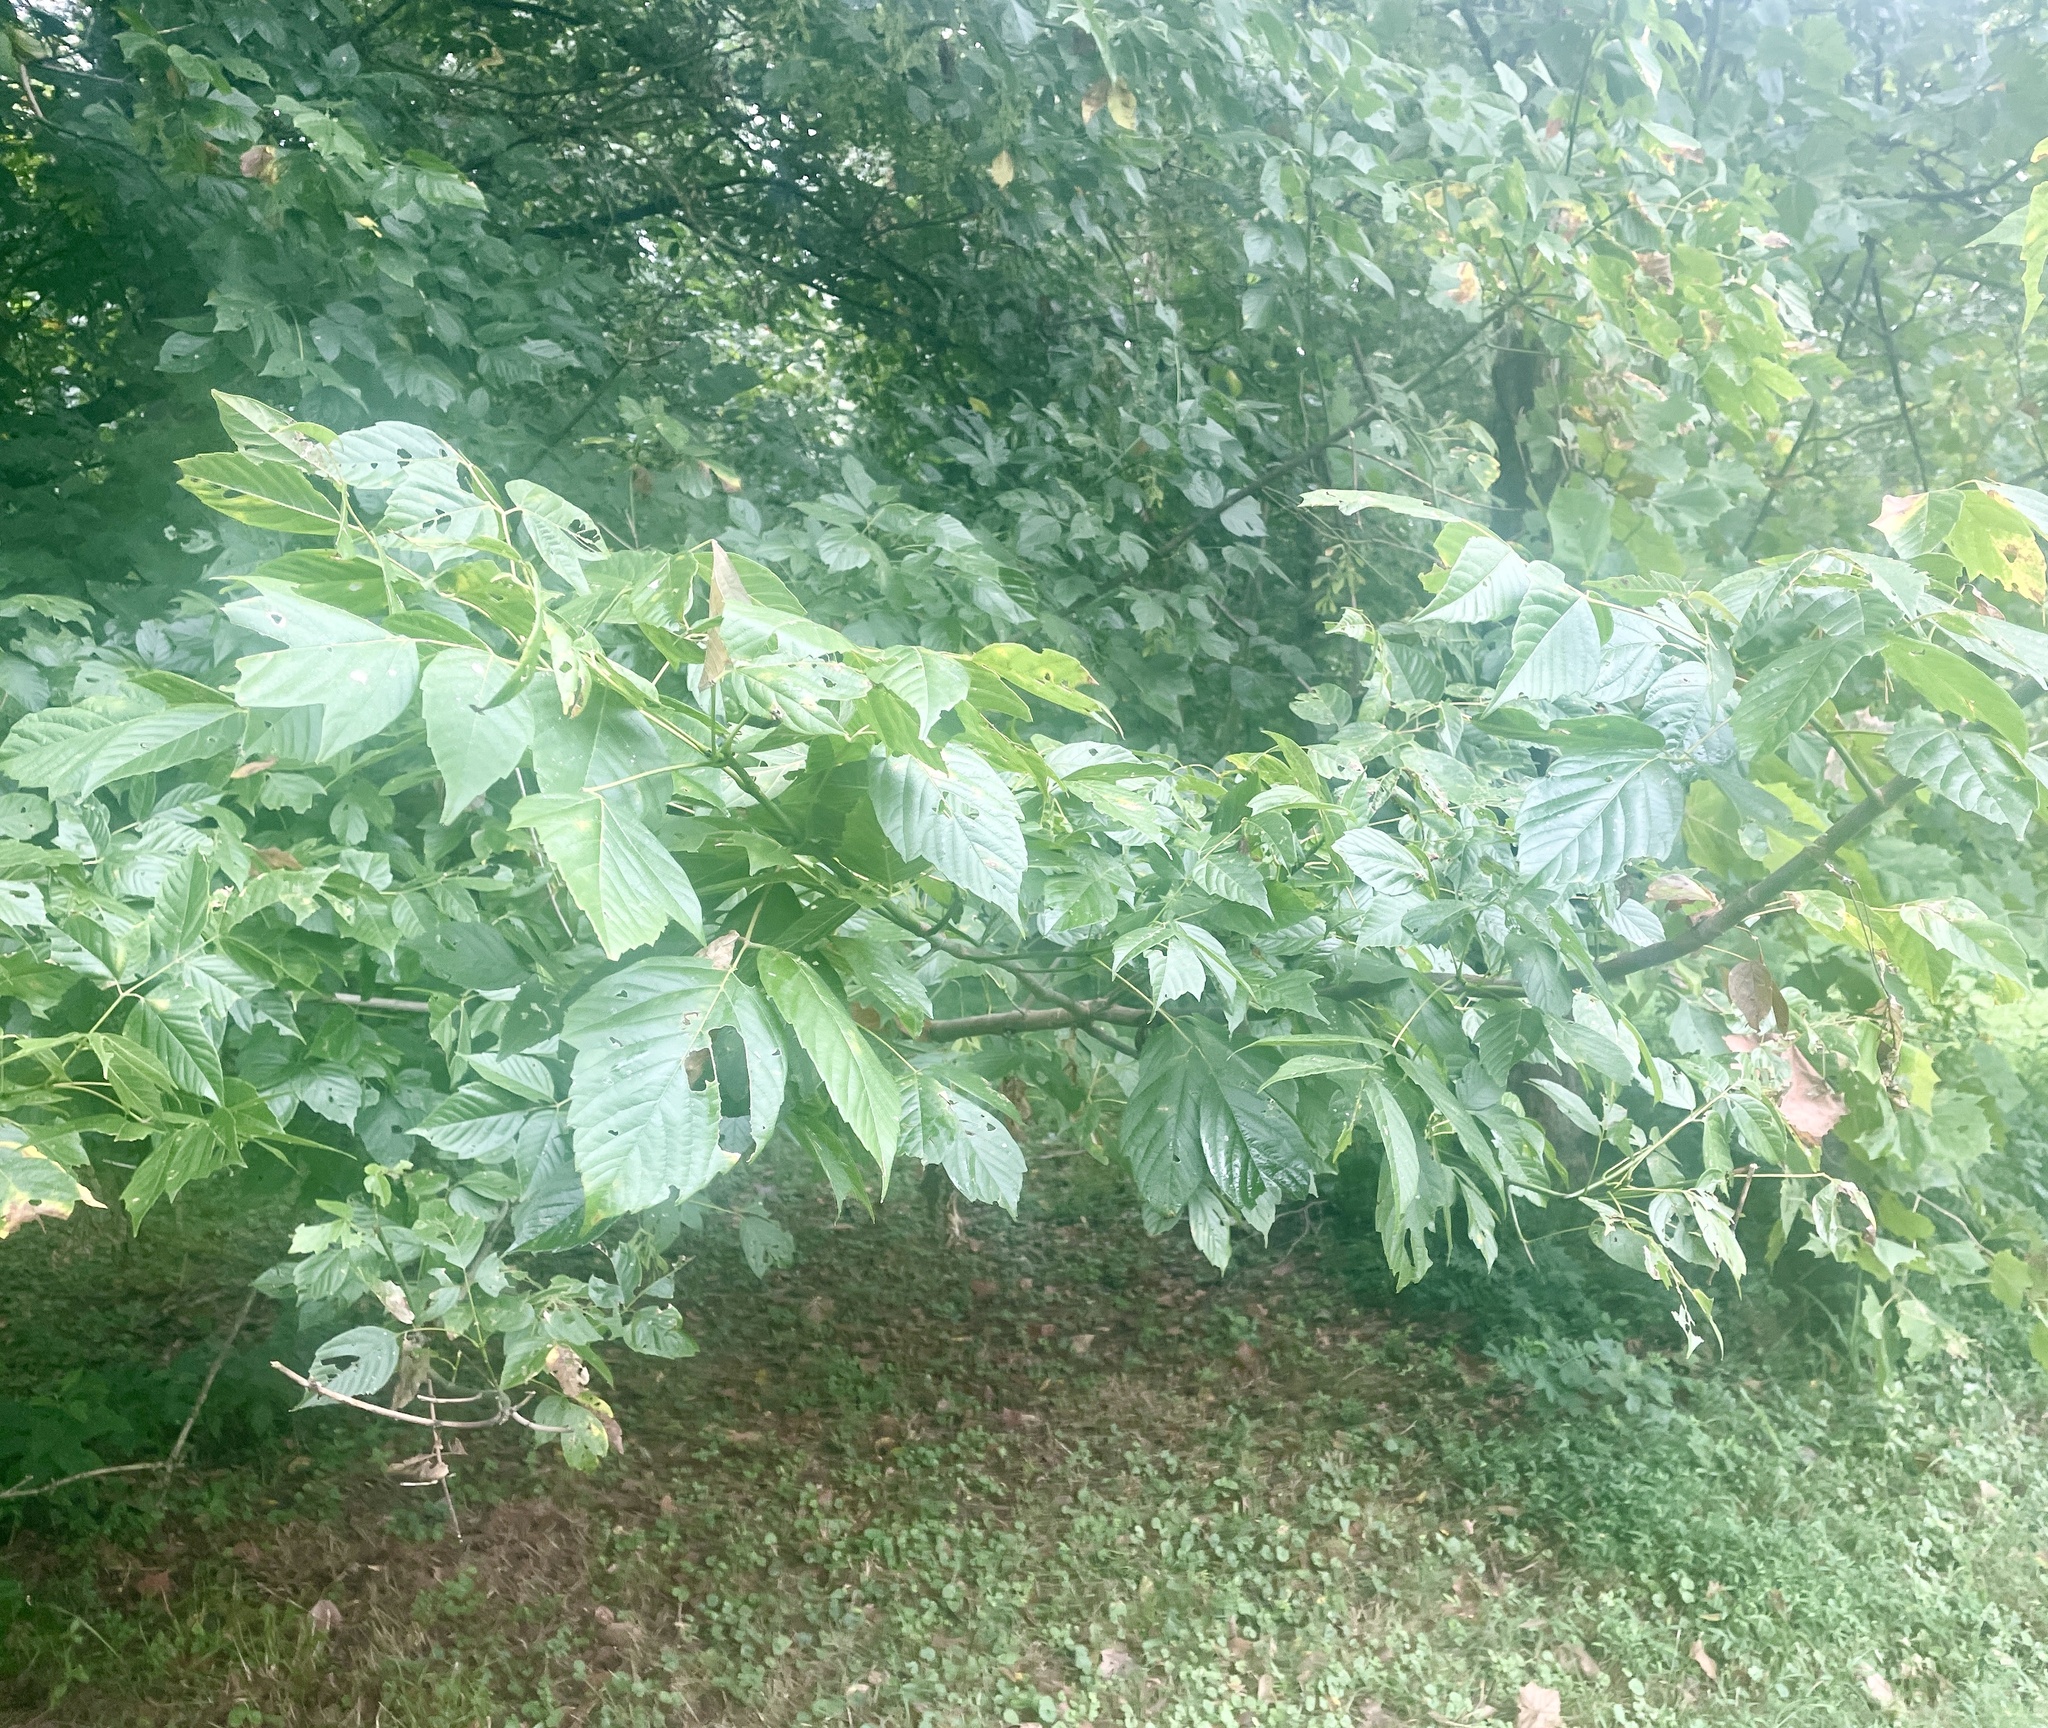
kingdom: Animalia
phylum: Arthropoda
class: Insecta
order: Lepidoptera
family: Erebidae
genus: Hyphantria
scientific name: Hyphantria cunea
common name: American white moth
